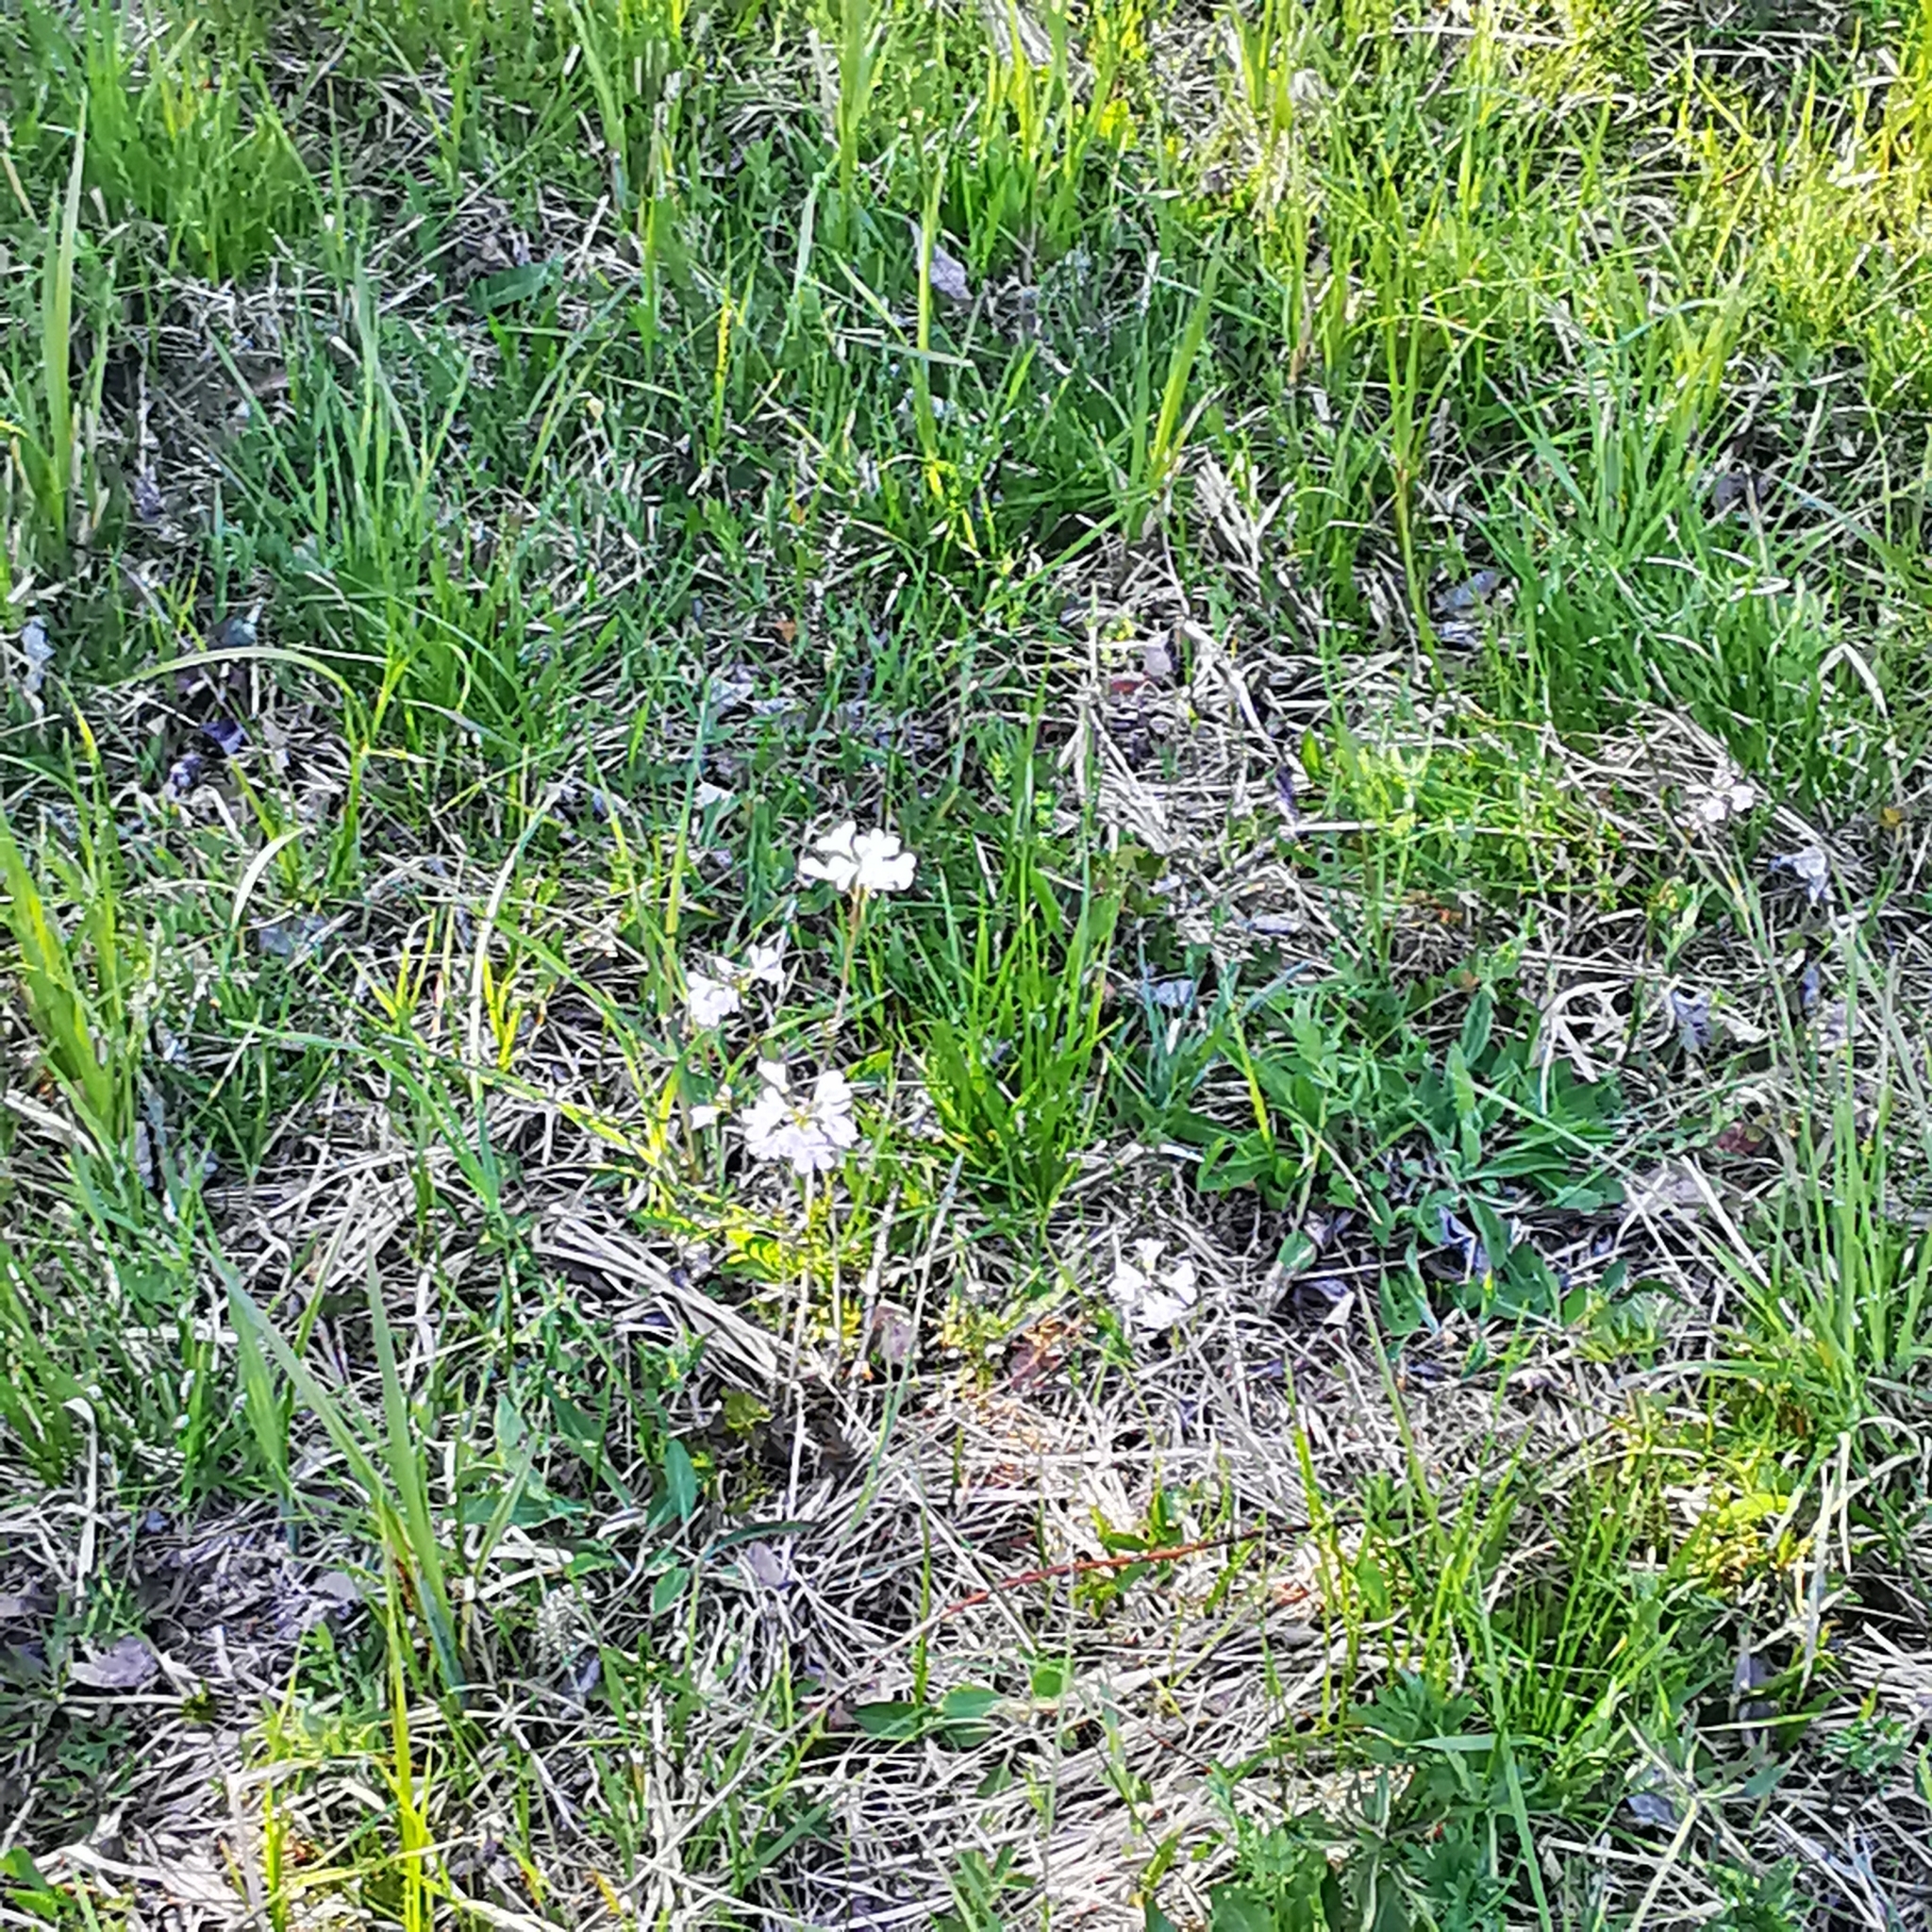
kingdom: Plantae
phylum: Tracheophyta
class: Magnoliopsida
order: Brassicales
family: Brassicaceae
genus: Cardamine
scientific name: Cardamine pratensis
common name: Cuckoo flower
